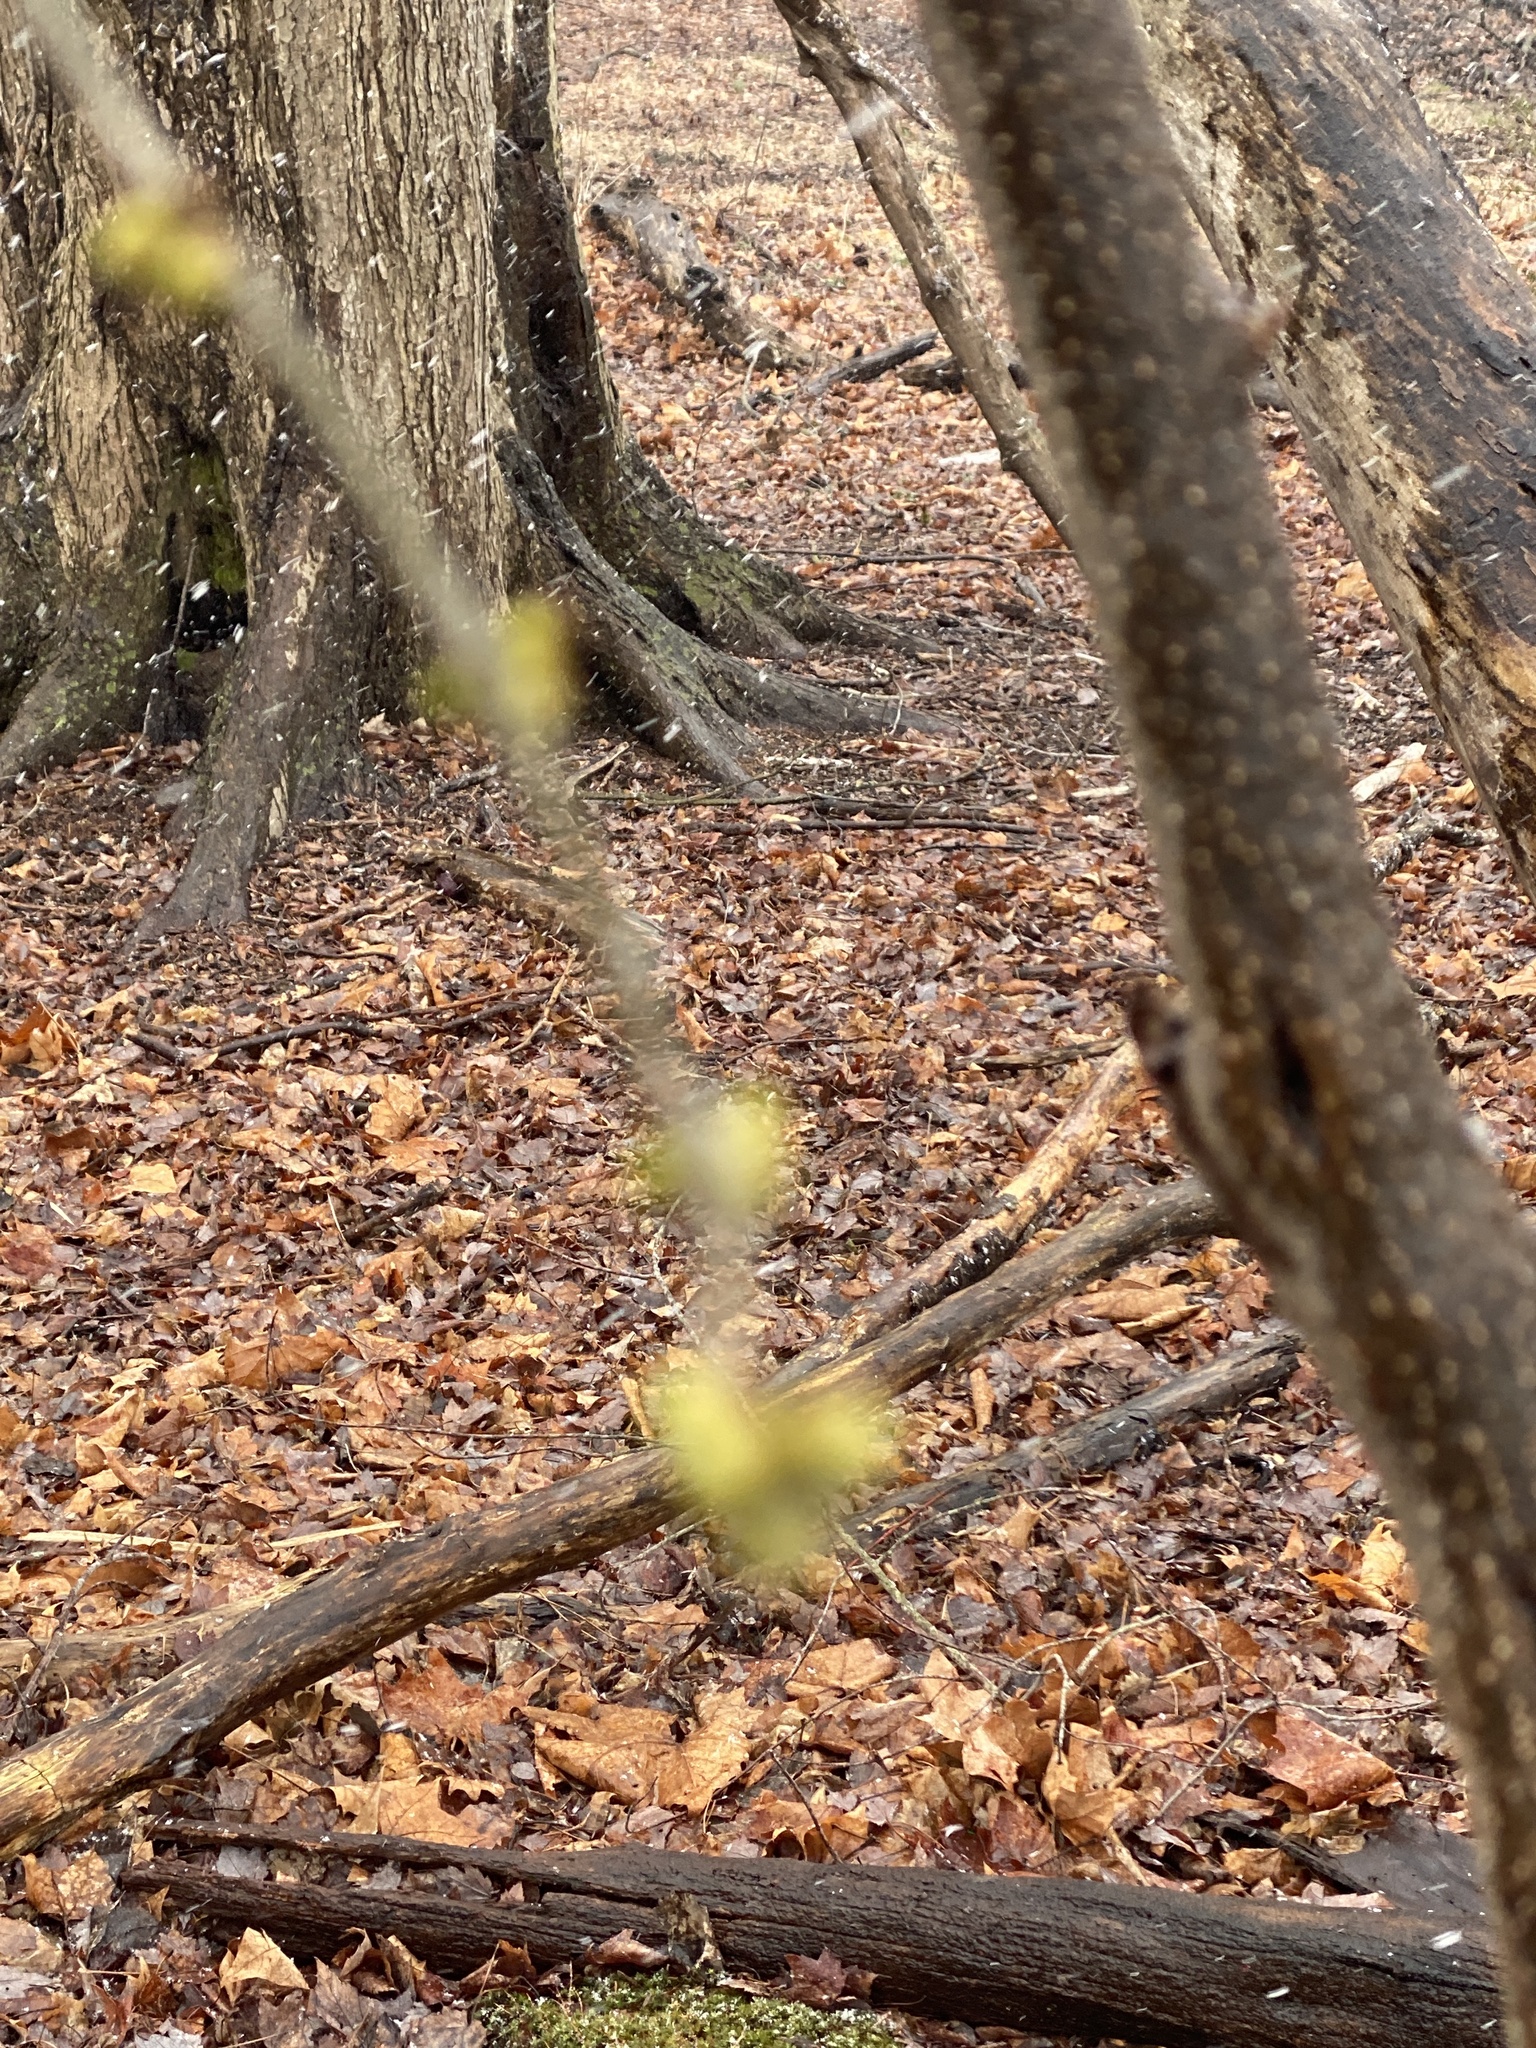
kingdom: Plantae
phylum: Tracheophyta
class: Magnoliopsida
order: Laurales
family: Lauraceae
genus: Lindera
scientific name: Lindera benzoin
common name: Spicebush
